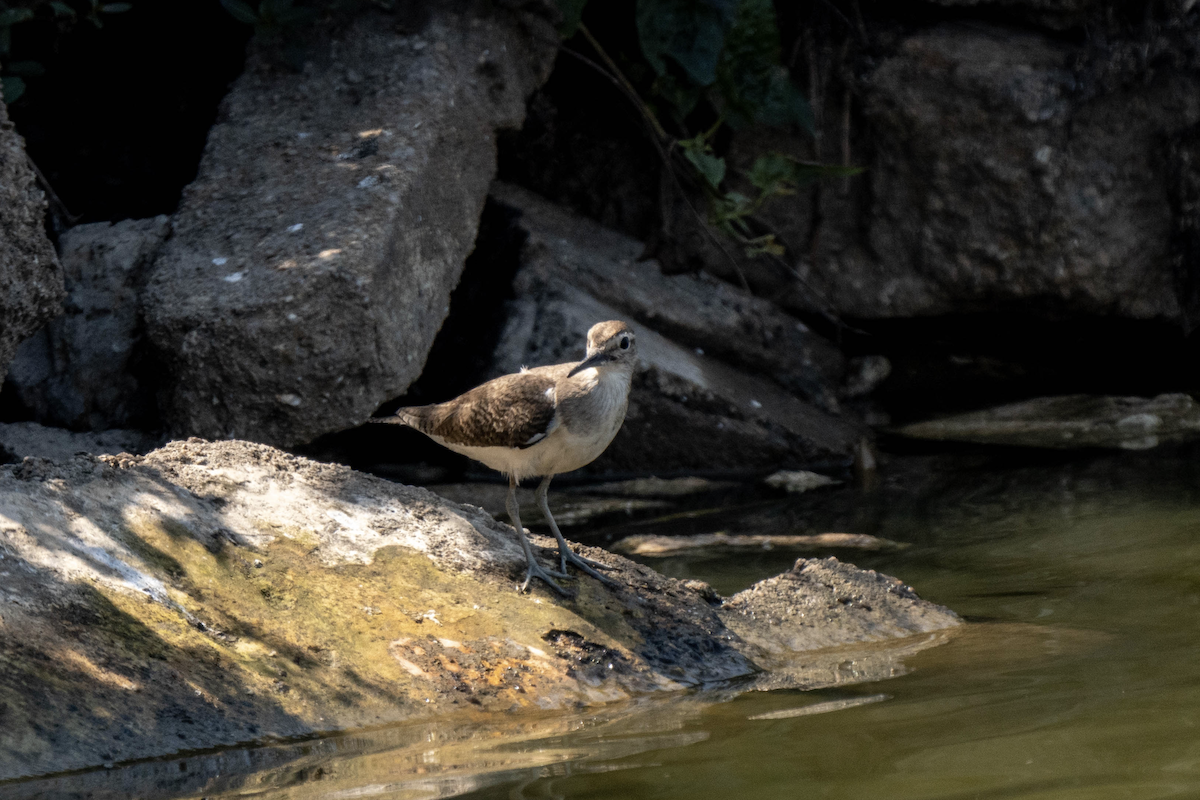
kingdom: Animalia
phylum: Chordata
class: Aves
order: Charadriiformes
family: Scolopacidae
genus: Actitis
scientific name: Actitis hypoleucos
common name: Common sandpiper
